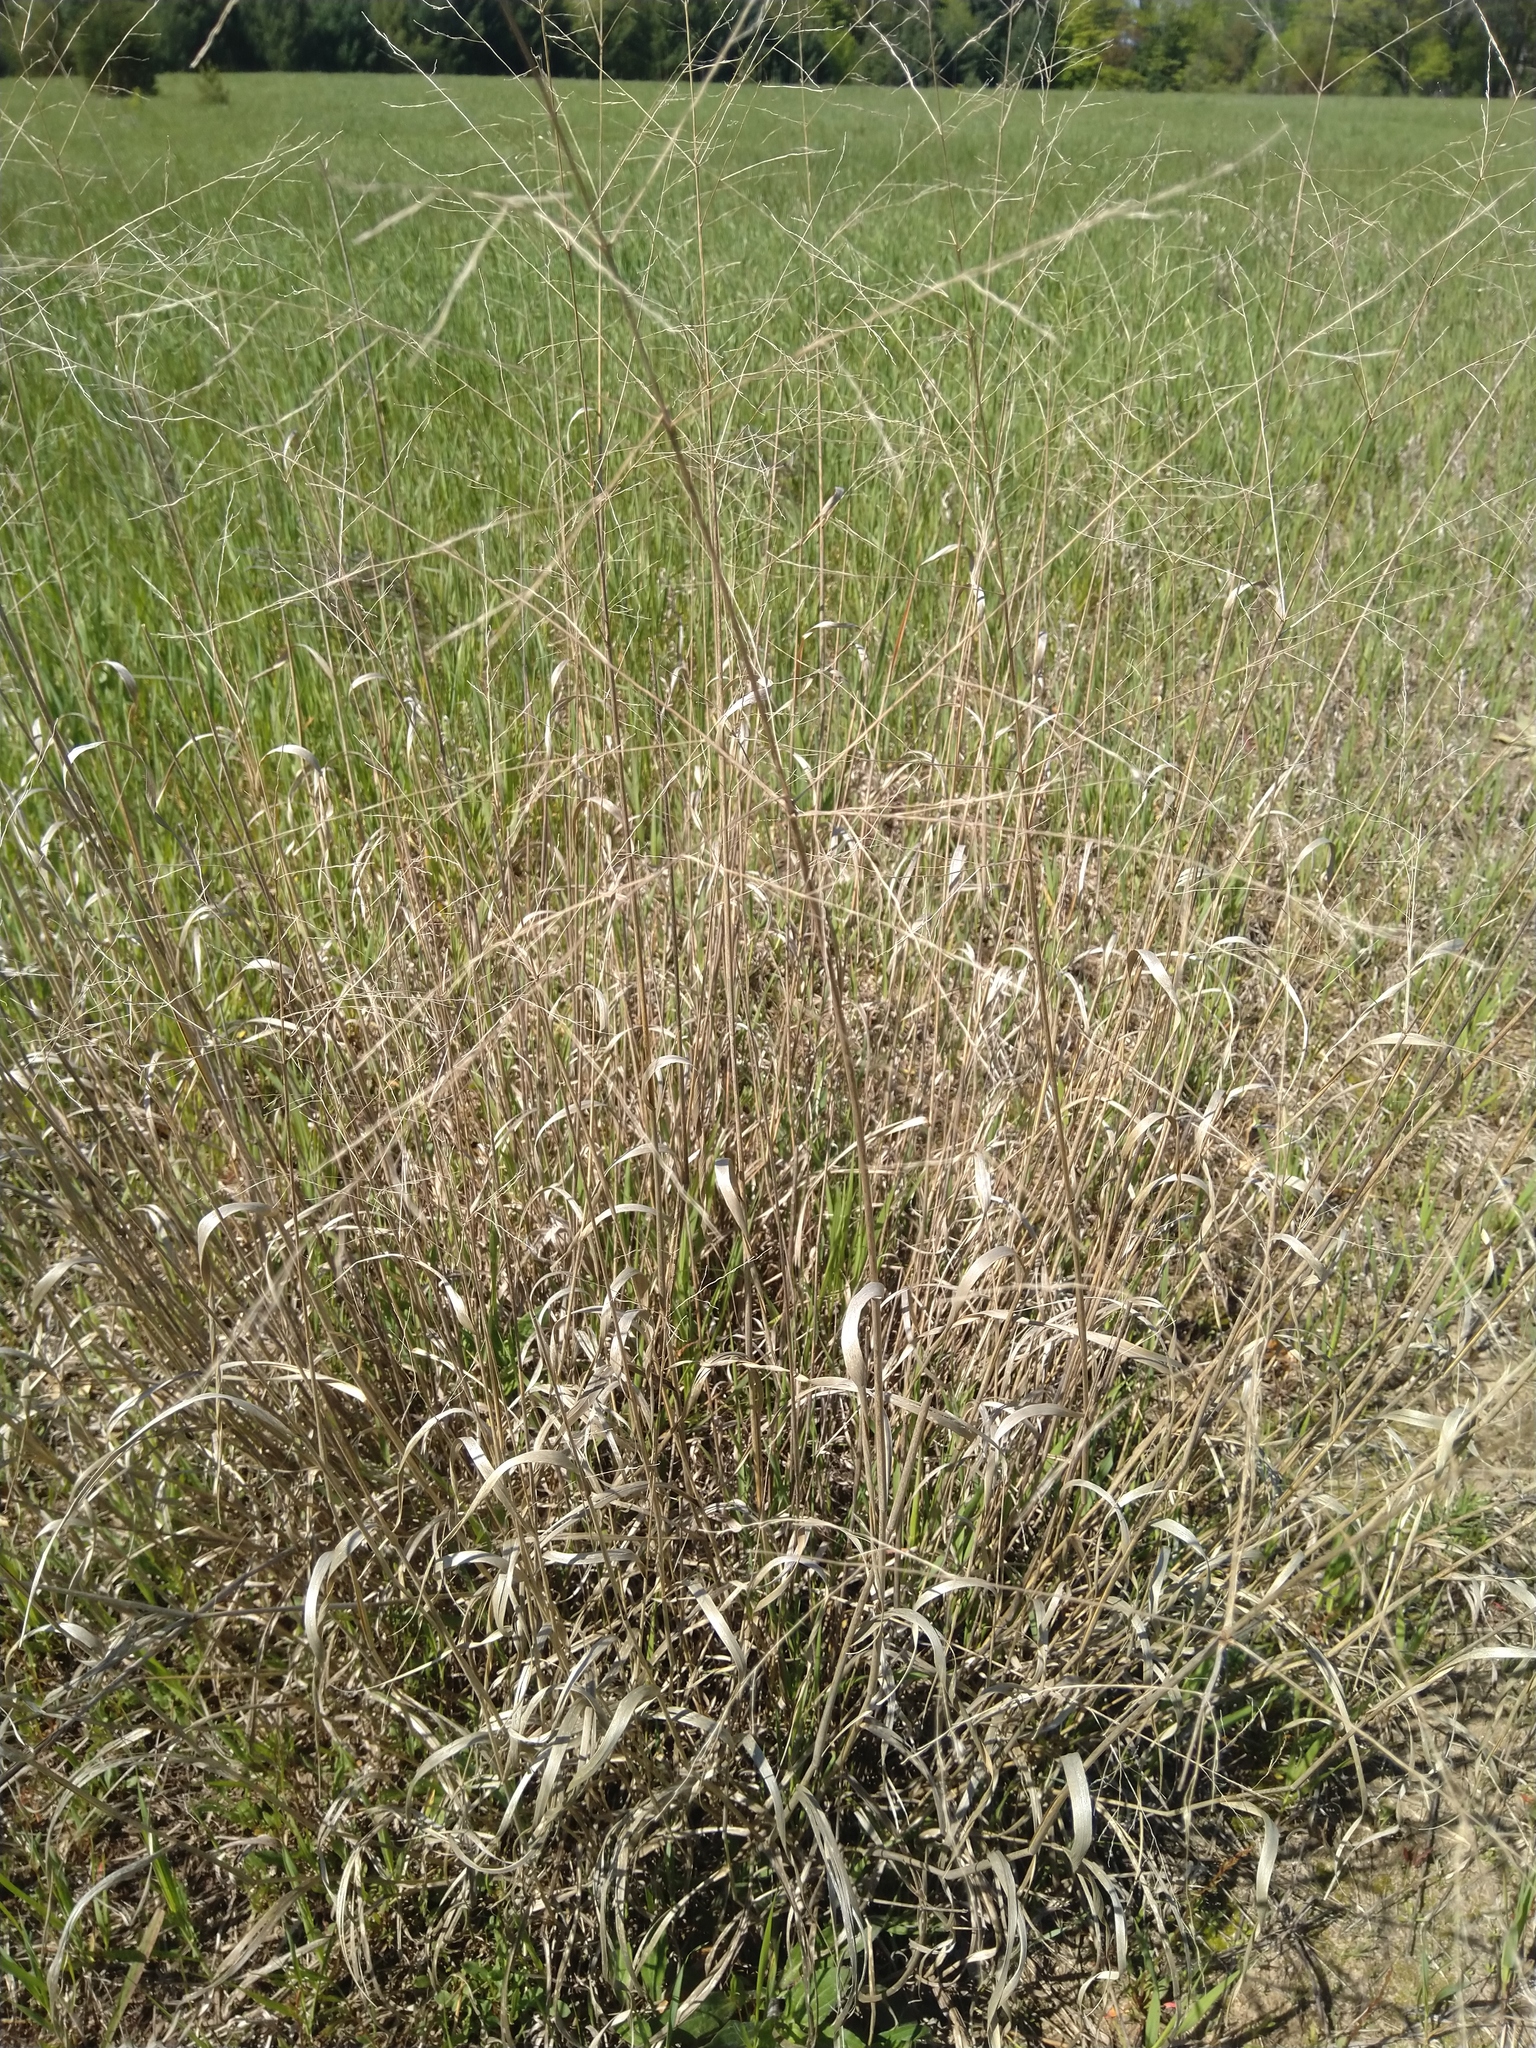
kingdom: Plantae
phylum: Tracheophyta
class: Liliopsida
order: Poales
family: Poaceae
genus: Panicum
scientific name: Panicum virgatum
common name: Switchgrass
